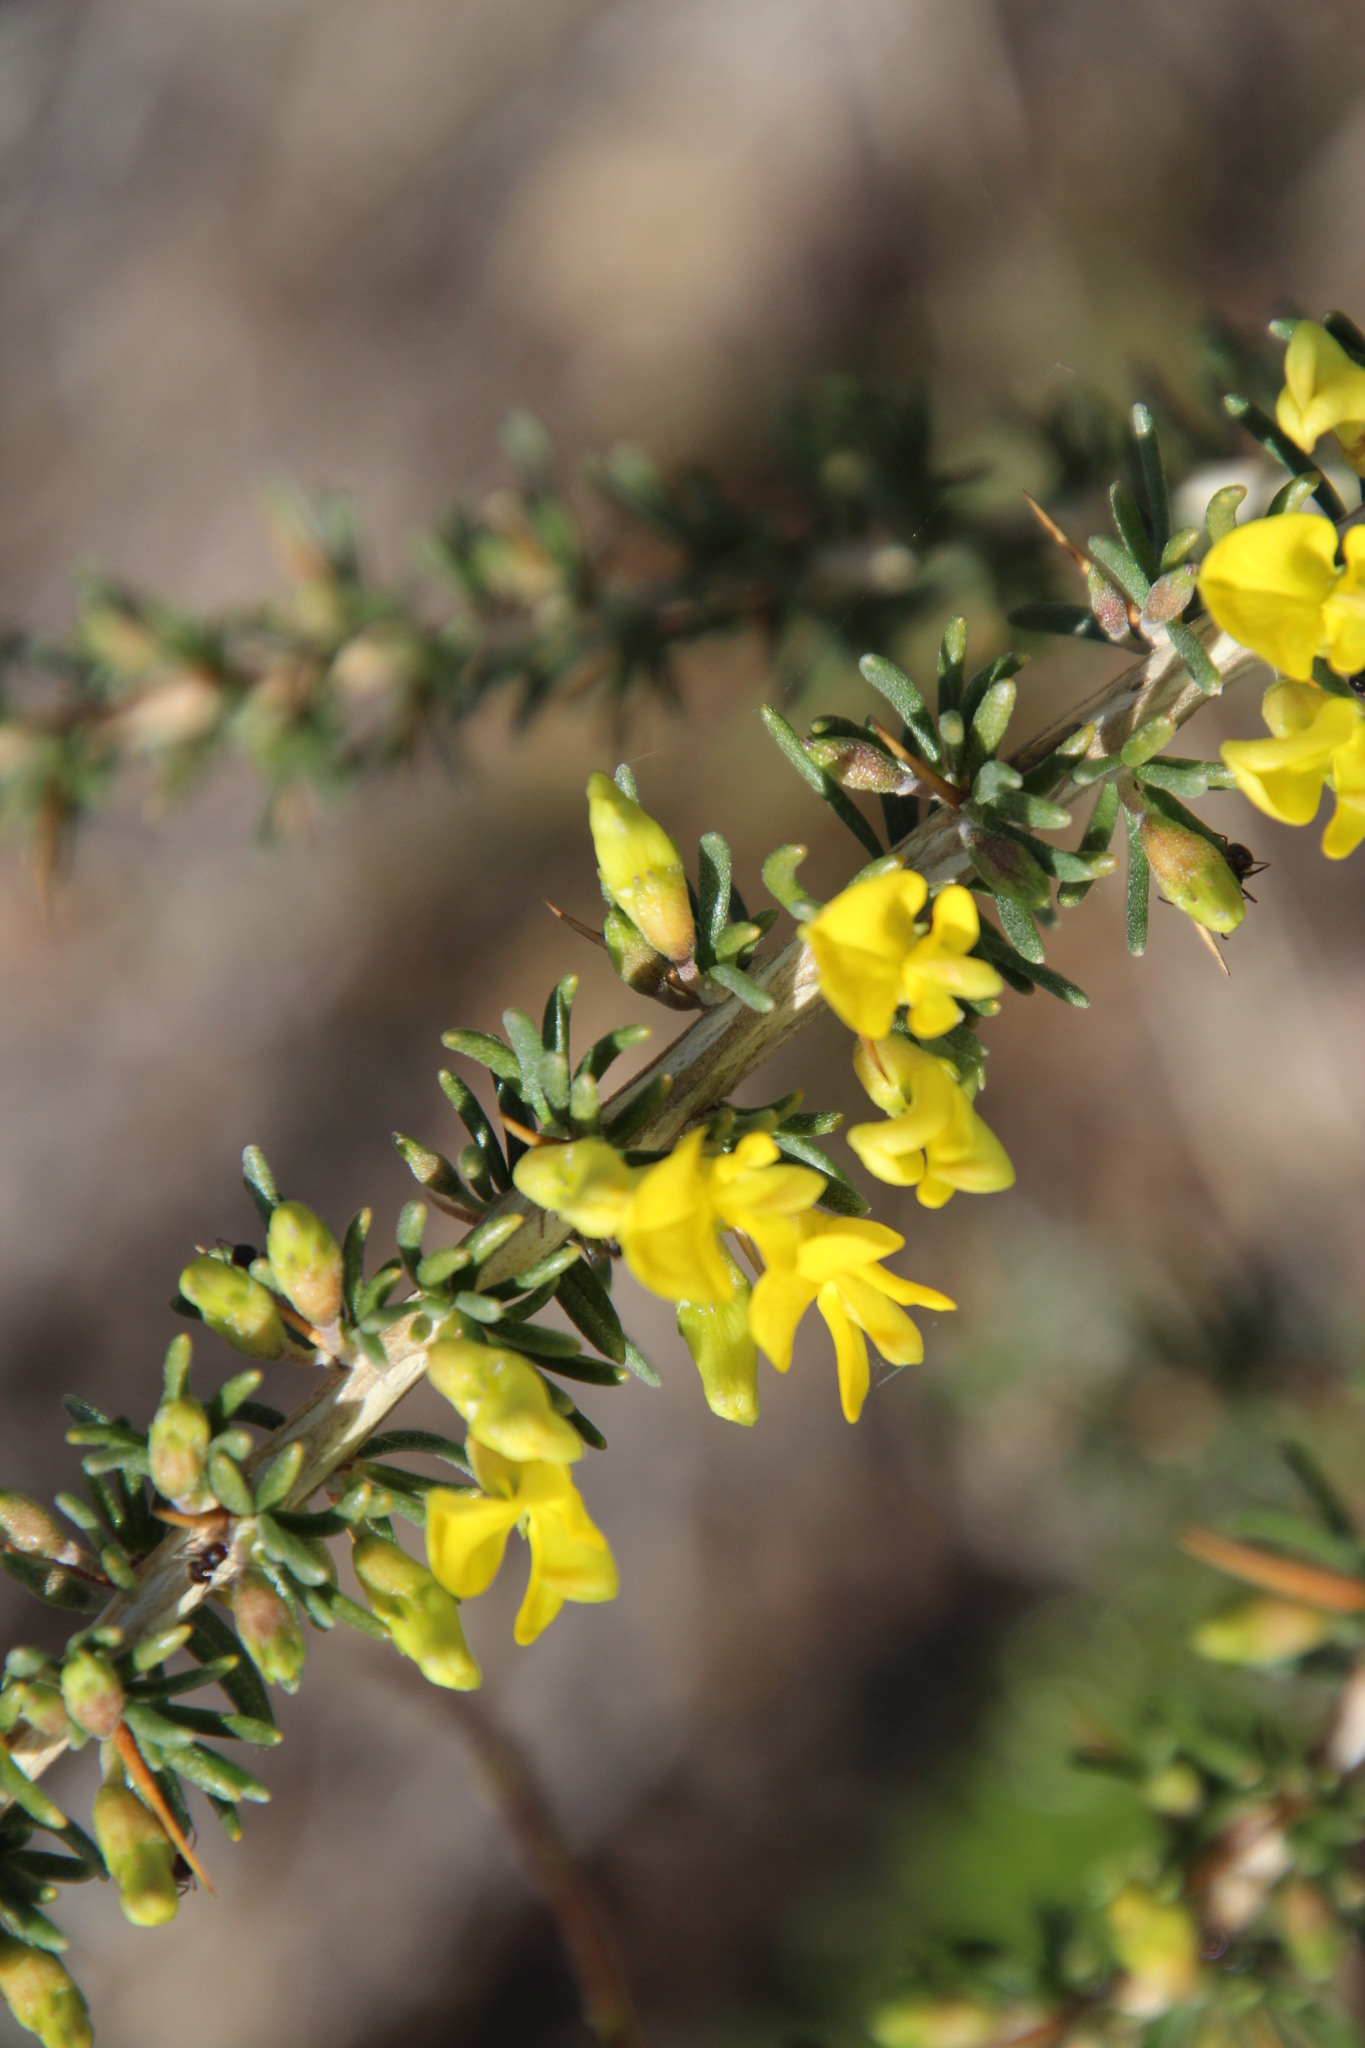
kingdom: Plantae
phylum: Tracheophyta
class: Magnoliopsida
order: Fabales
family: Fabaceae
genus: Aspalathus
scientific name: Aspalathus spinosa
